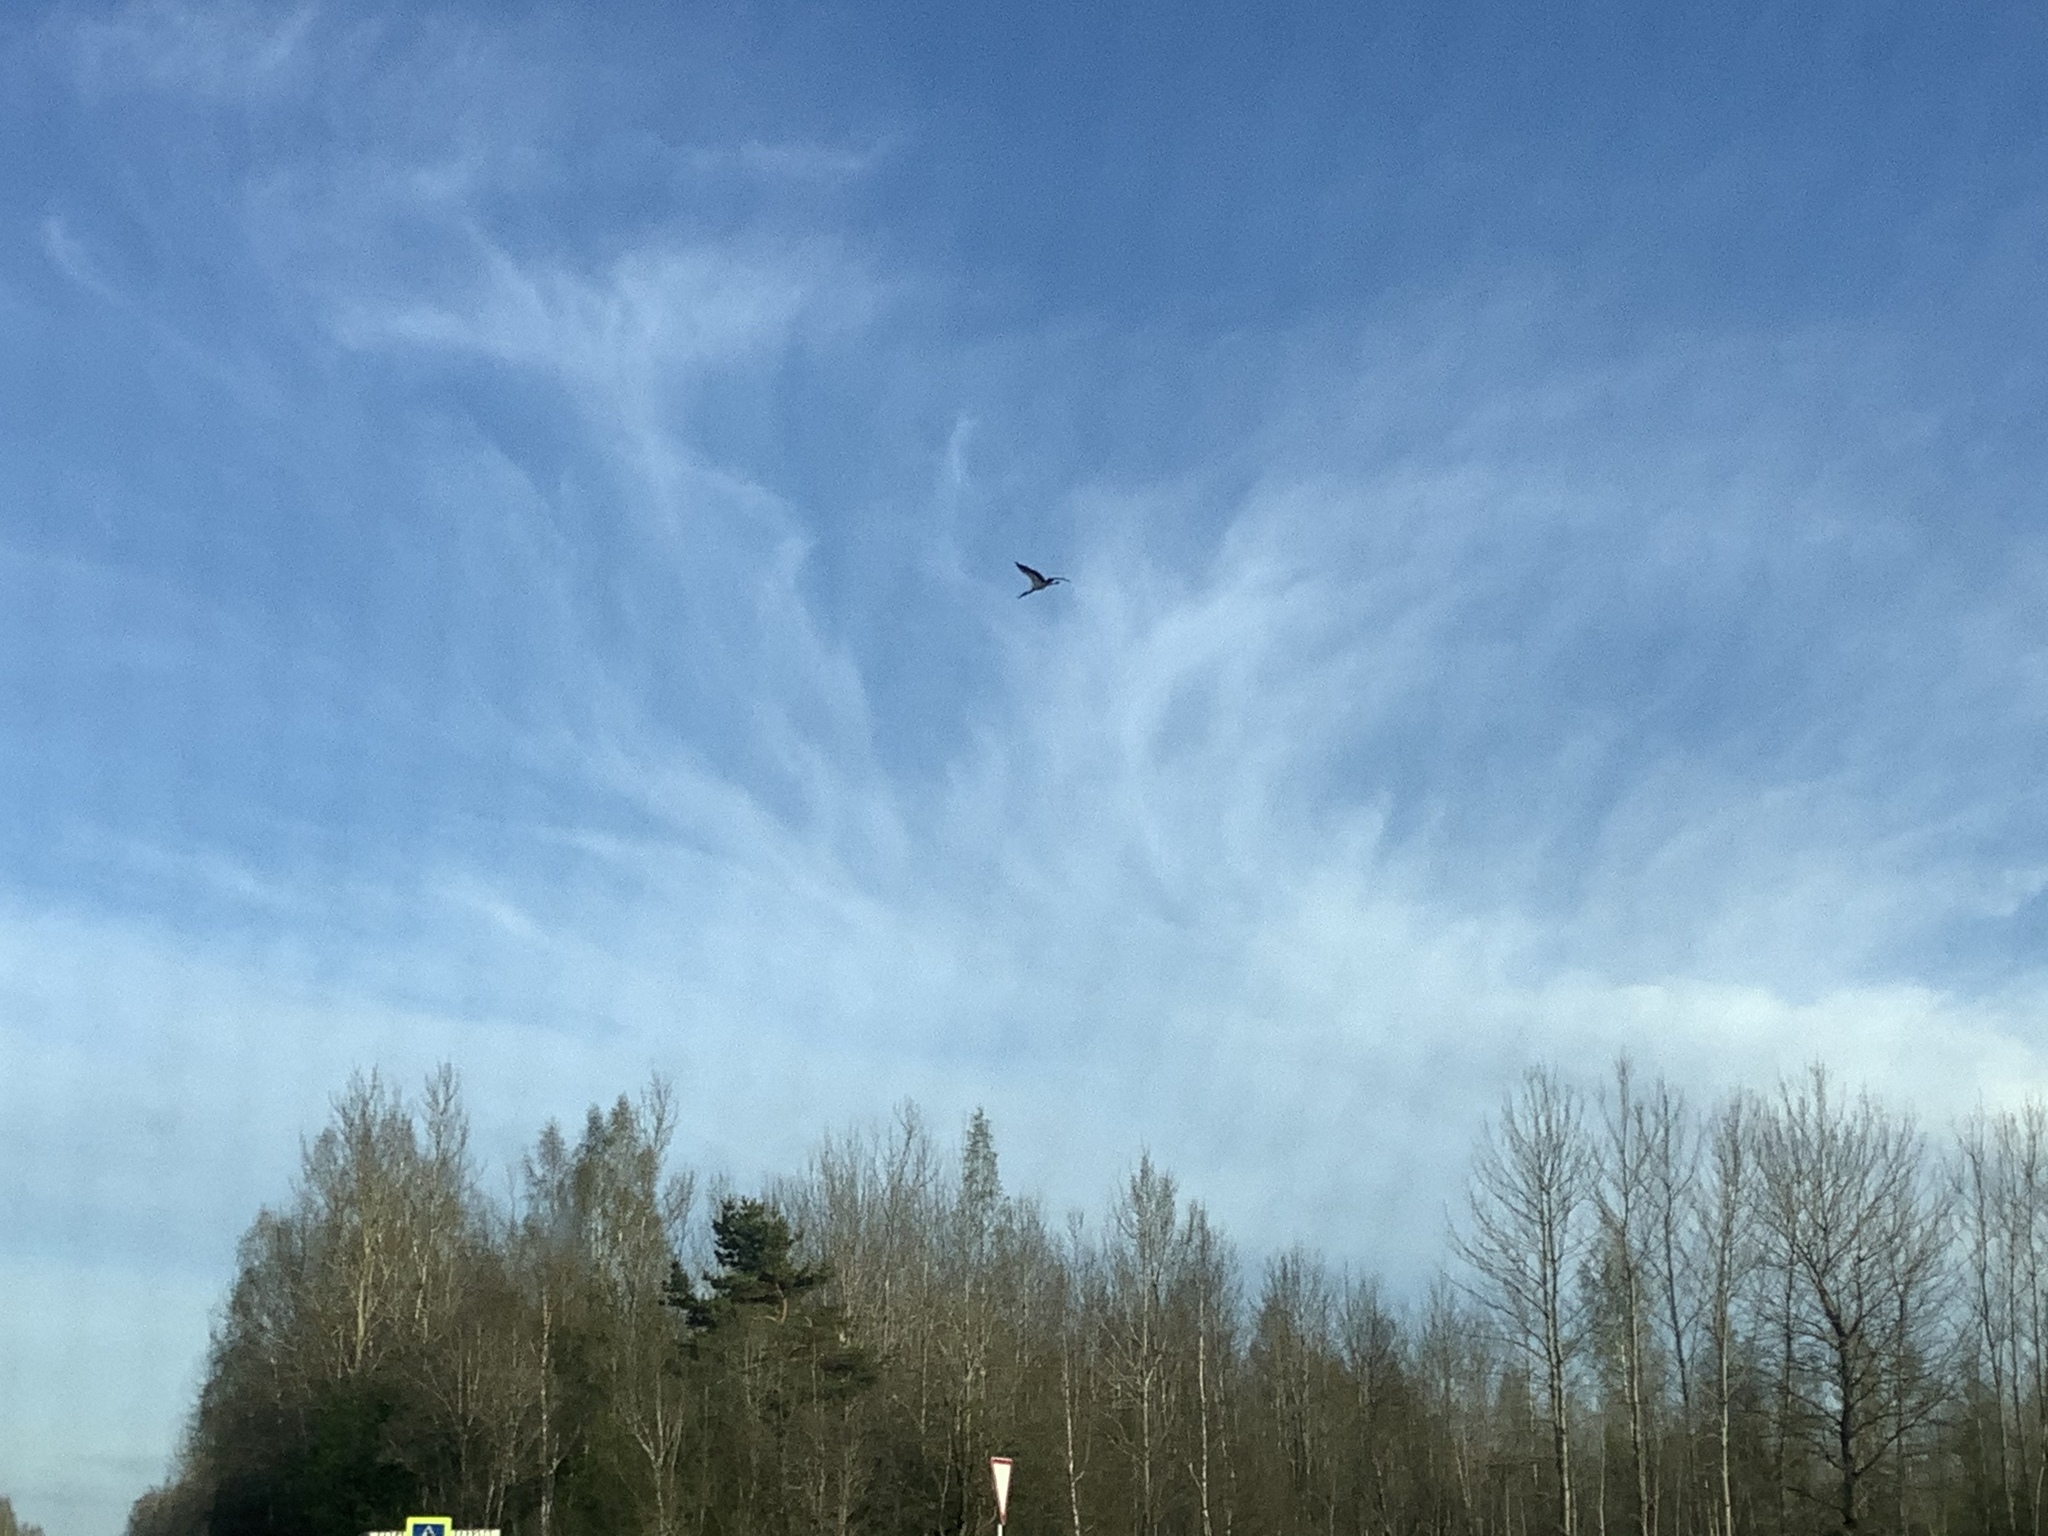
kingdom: Animalia
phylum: Chordata
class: Aves
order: Gruiformes
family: Gruidae
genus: Grus
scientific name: Grus grus
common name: Common crane
